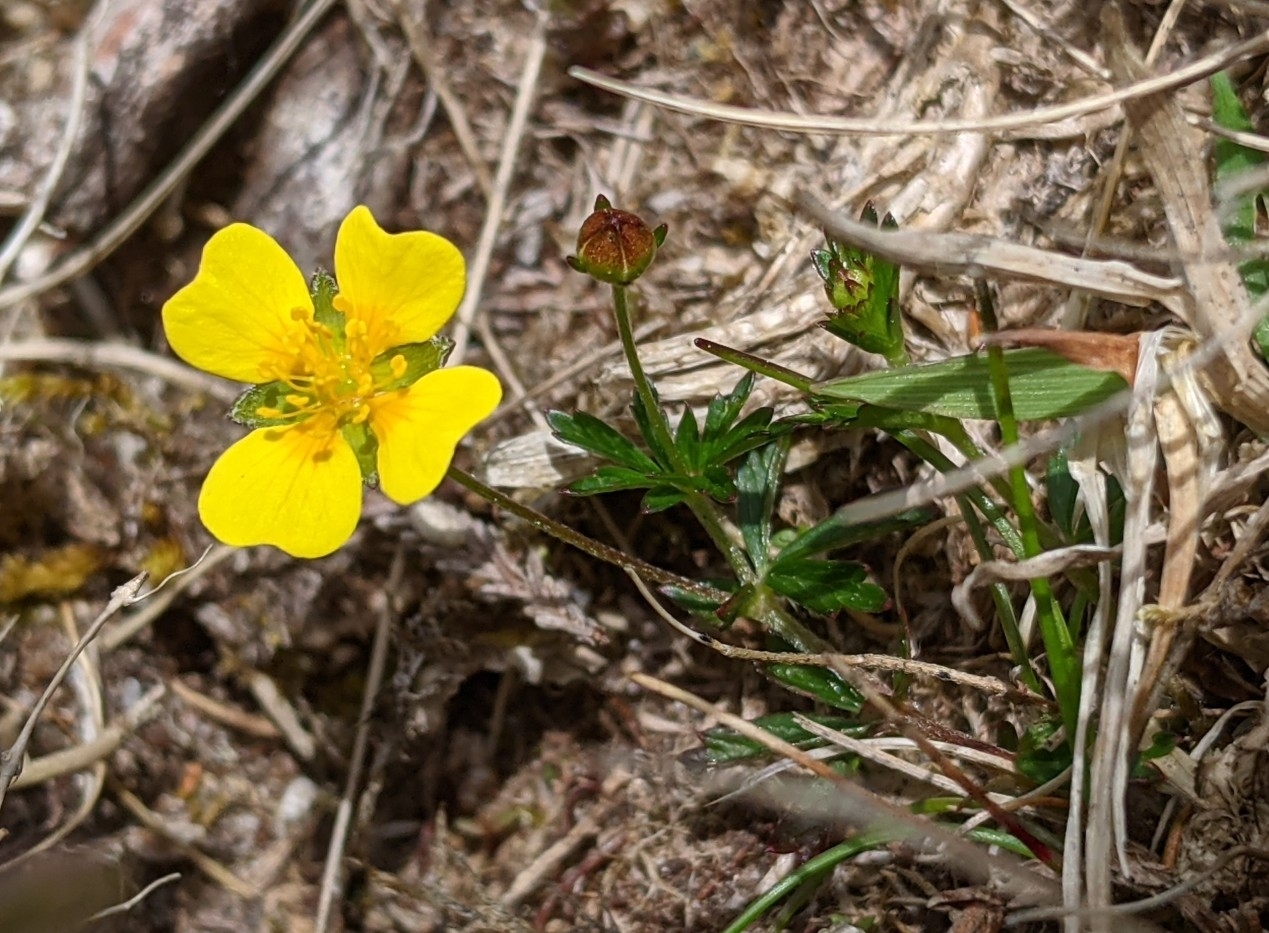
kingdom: Plantae
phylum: Tracheophyta
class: Magnoliopsida
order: Rosales
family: Rosaceae
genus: Potentilla
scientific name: Potentilla erecta
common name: Tormentil
